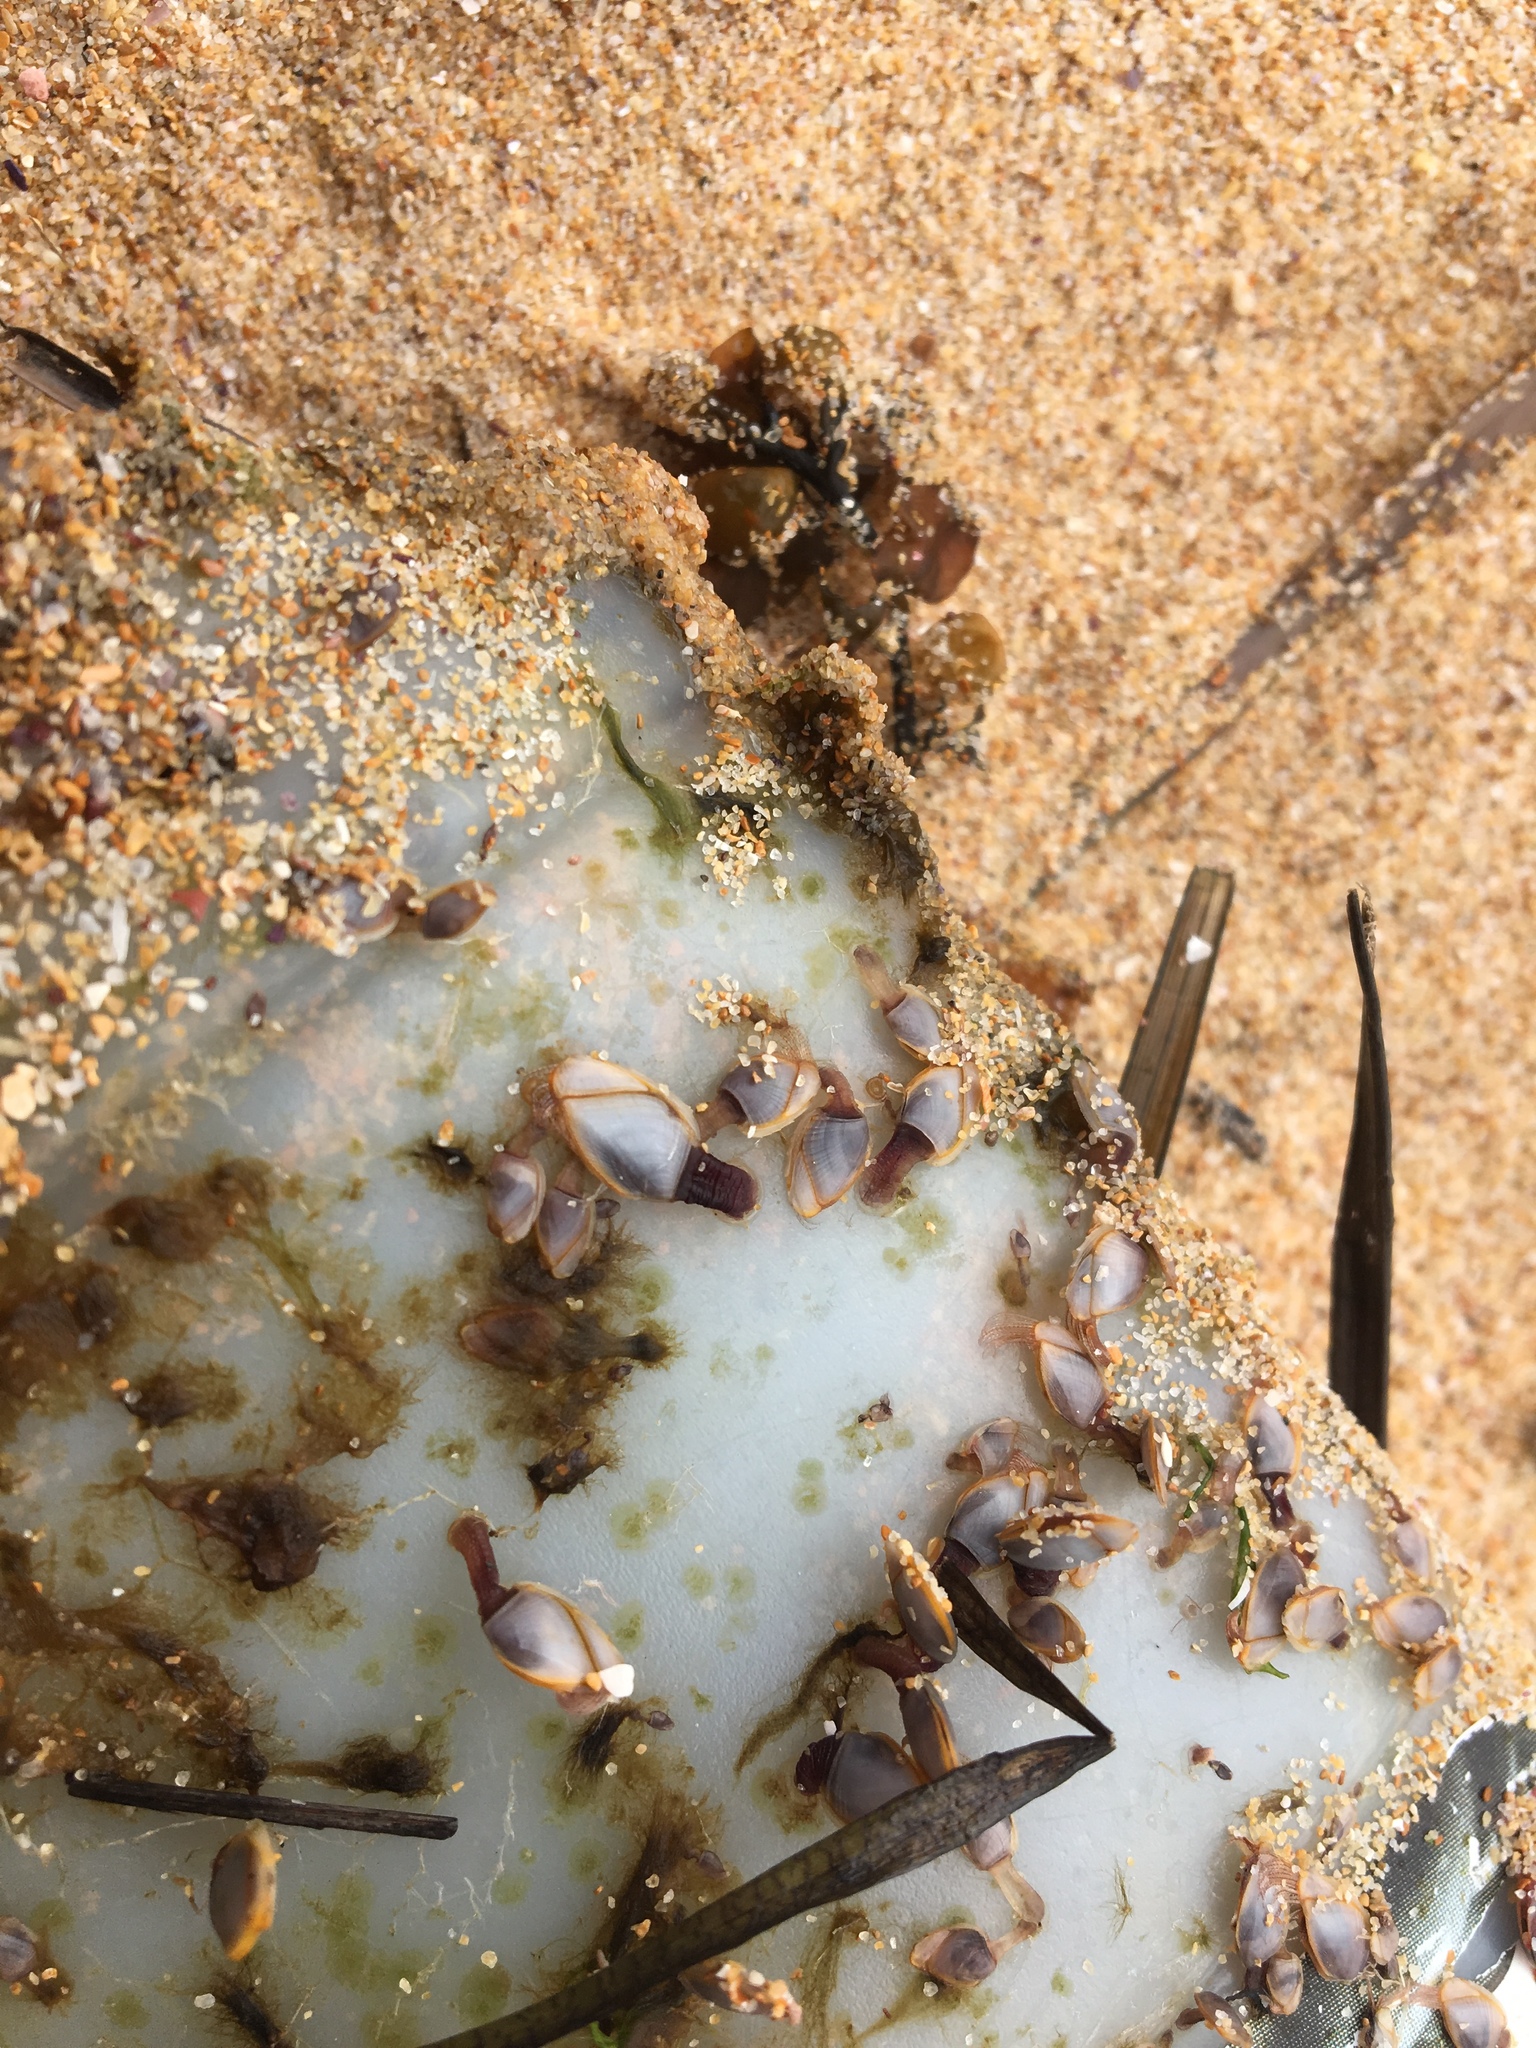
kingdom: Animalia
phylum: Arthropoda
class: Maxillopoda
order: Pedunculata
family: Lepadidae
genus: Lepas
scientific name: Lepas anserifera
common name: Goose barnacle
